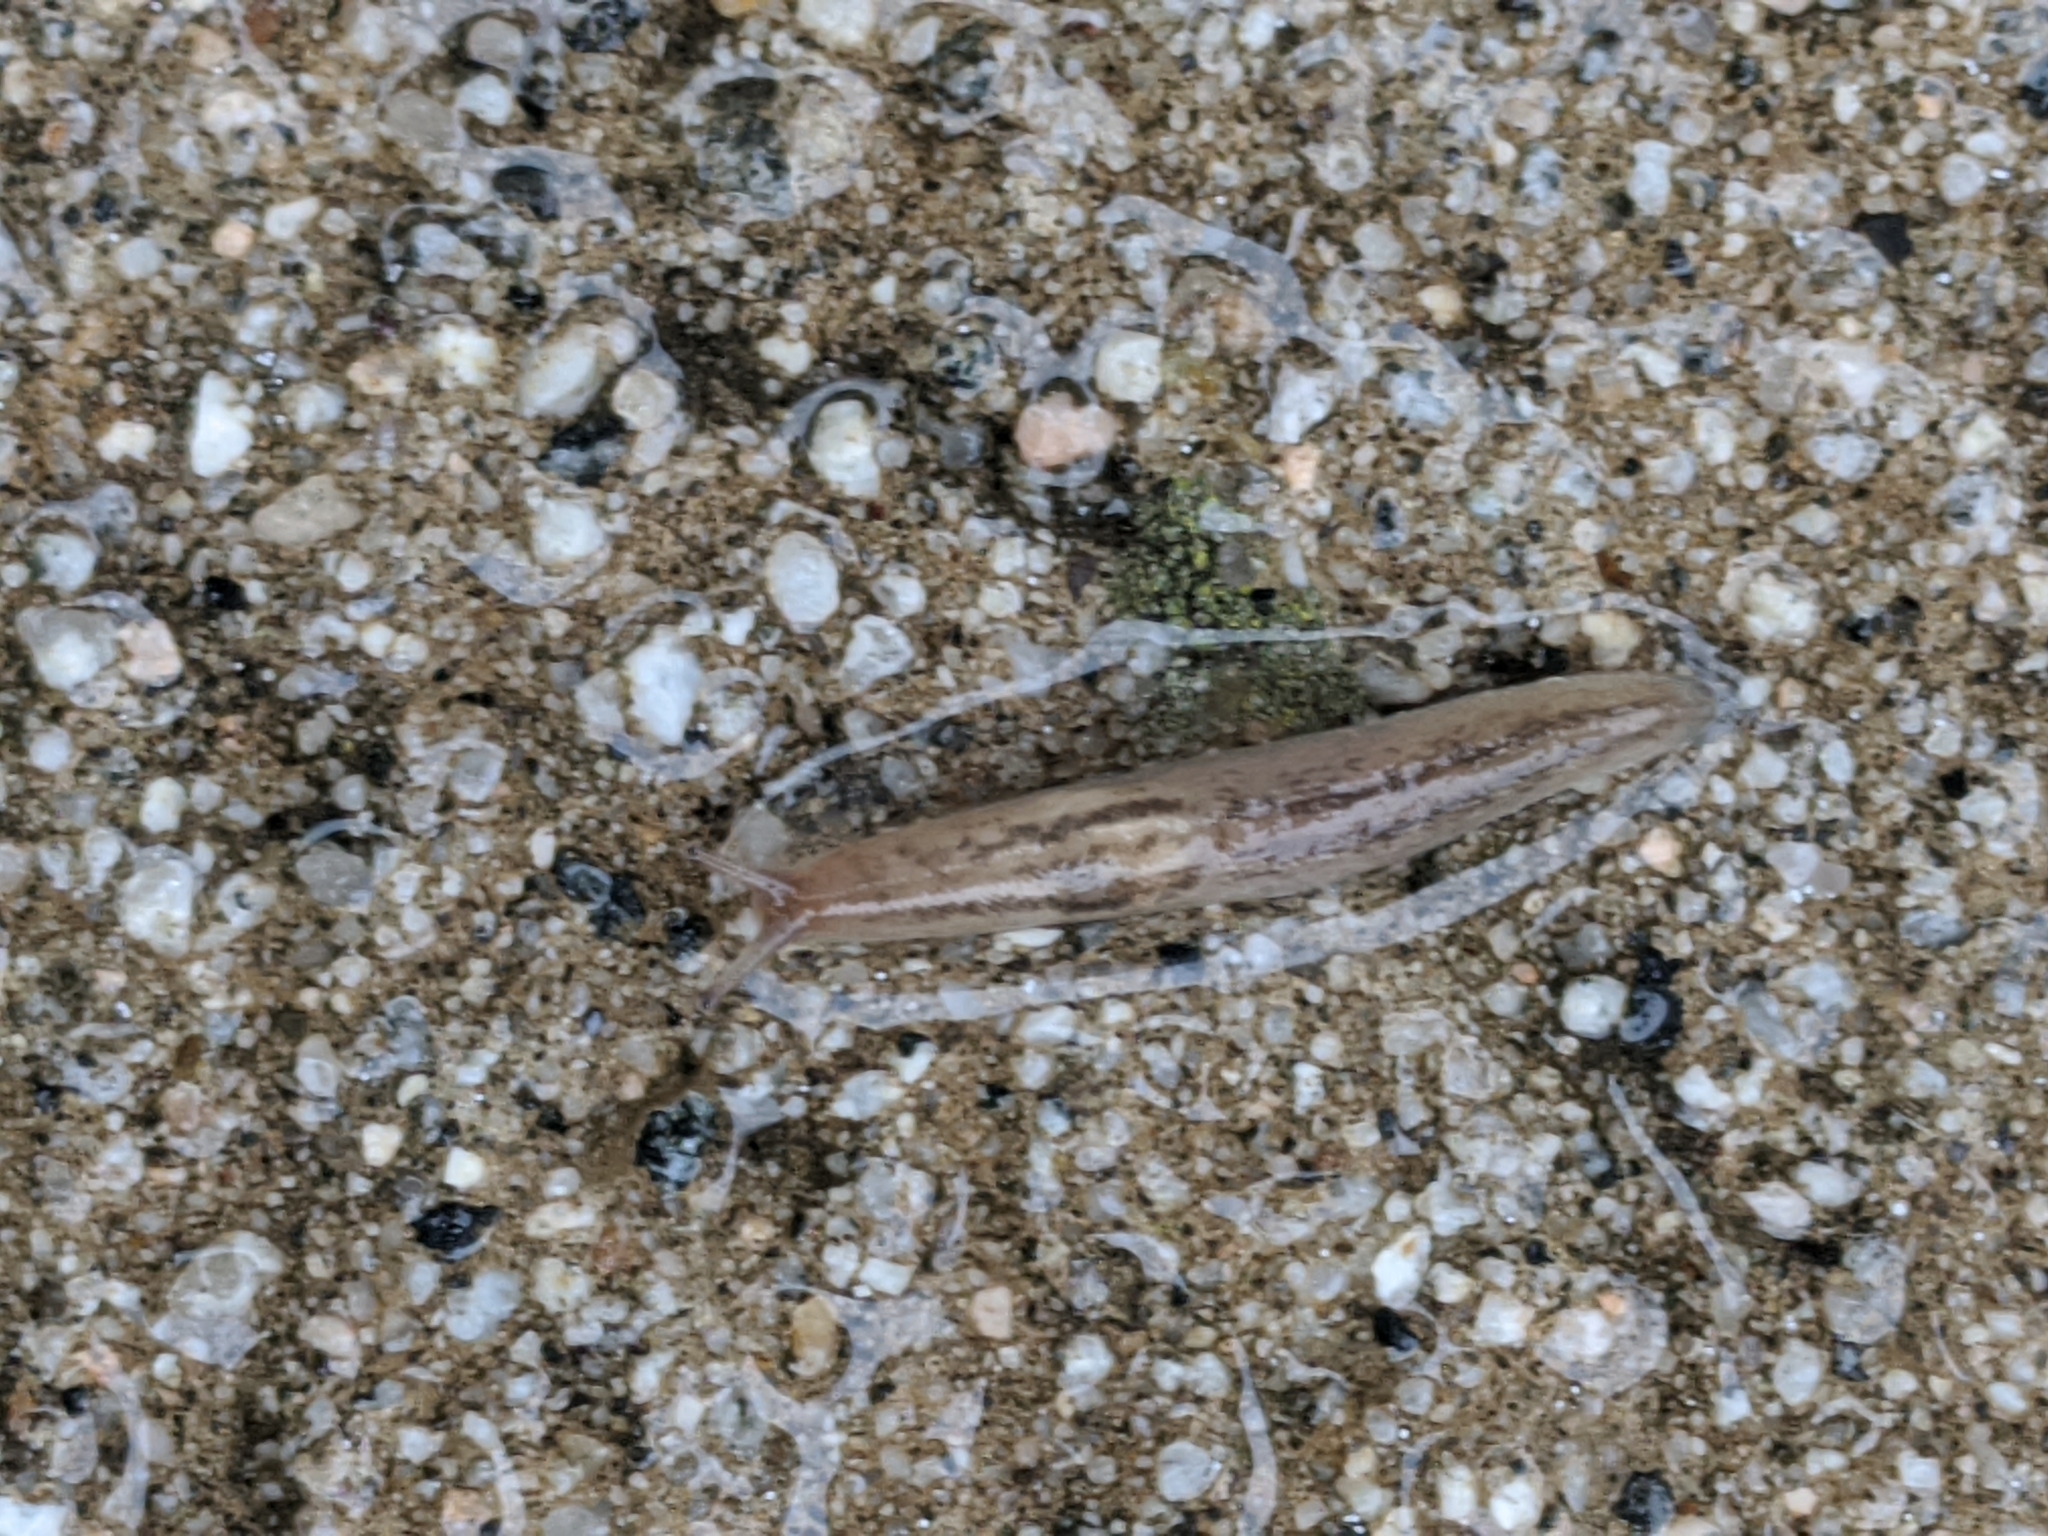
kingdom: Animalia
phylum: Mollusca
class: Gastropoda
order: Stylommatophora
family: Limacidae
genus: Ambigolimax
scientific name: Ambigolimax
